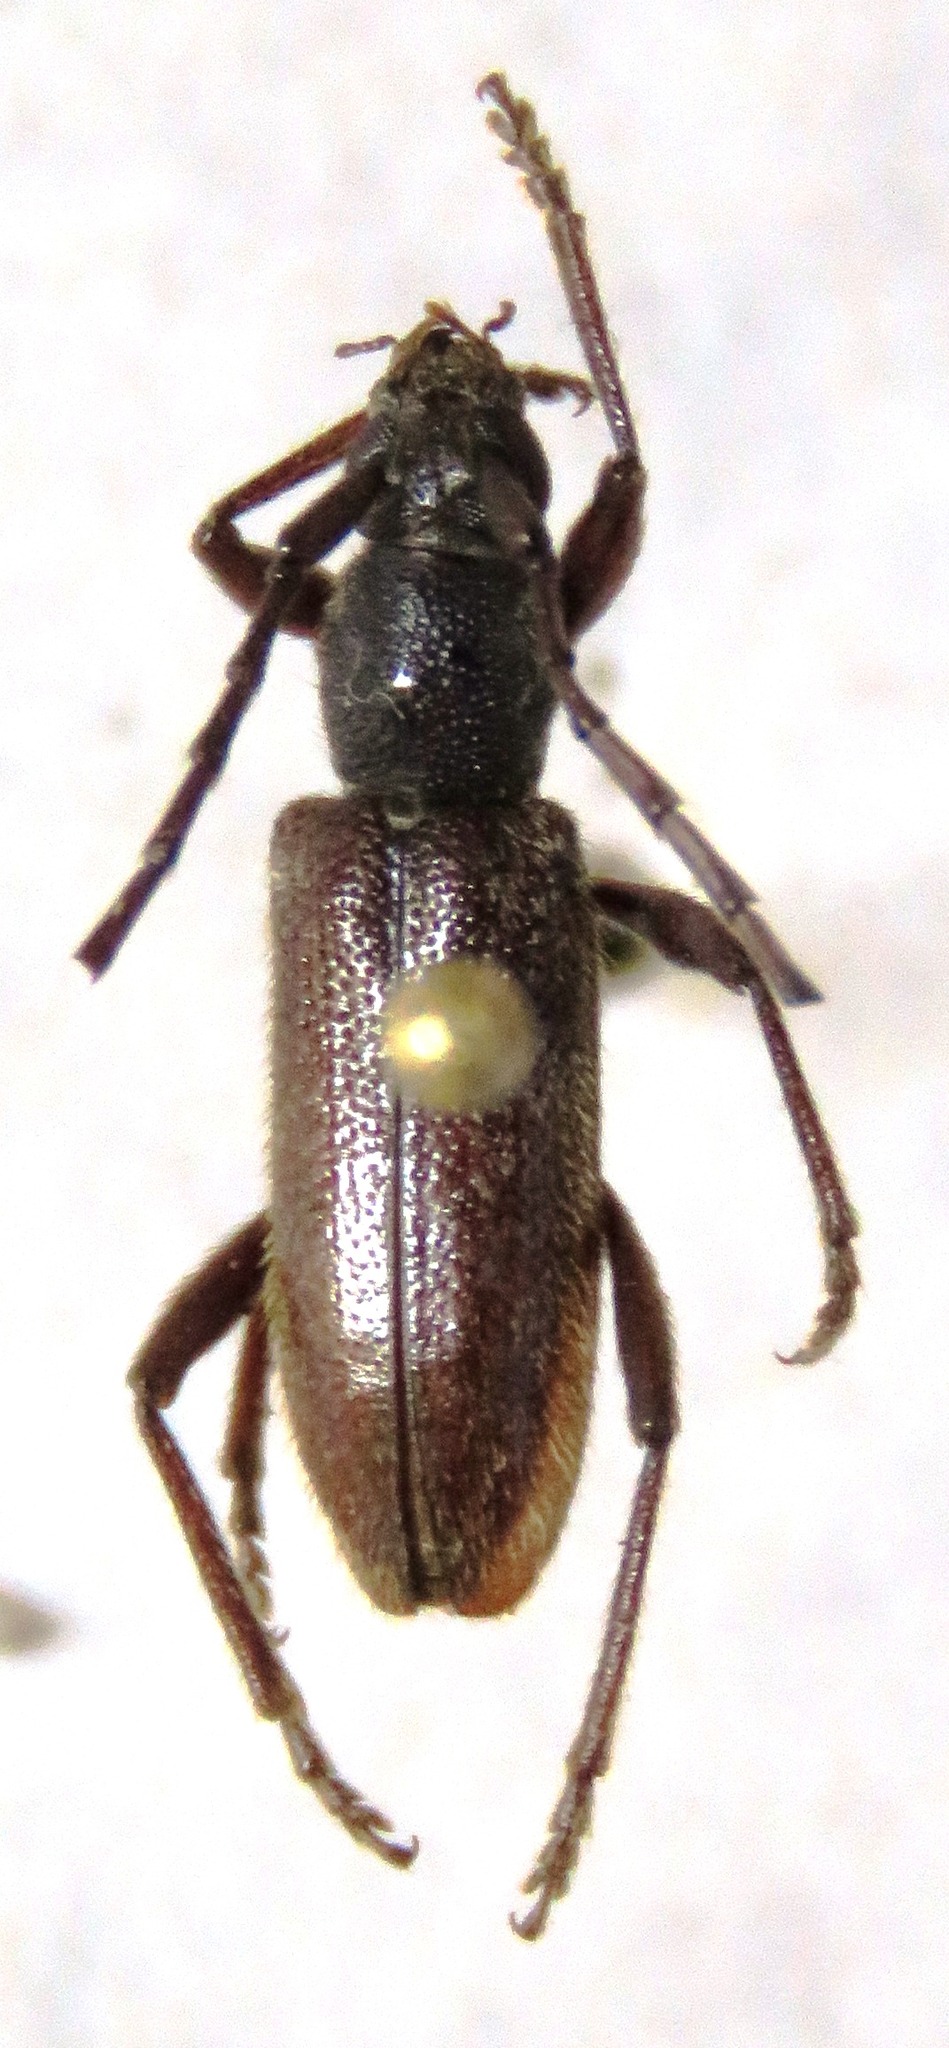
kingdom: Animalia
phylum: Arthropoda
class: Insecta
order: Coleoptera
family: Cerambycidae
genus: Anelaphus
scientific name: Anelaphus misellus
